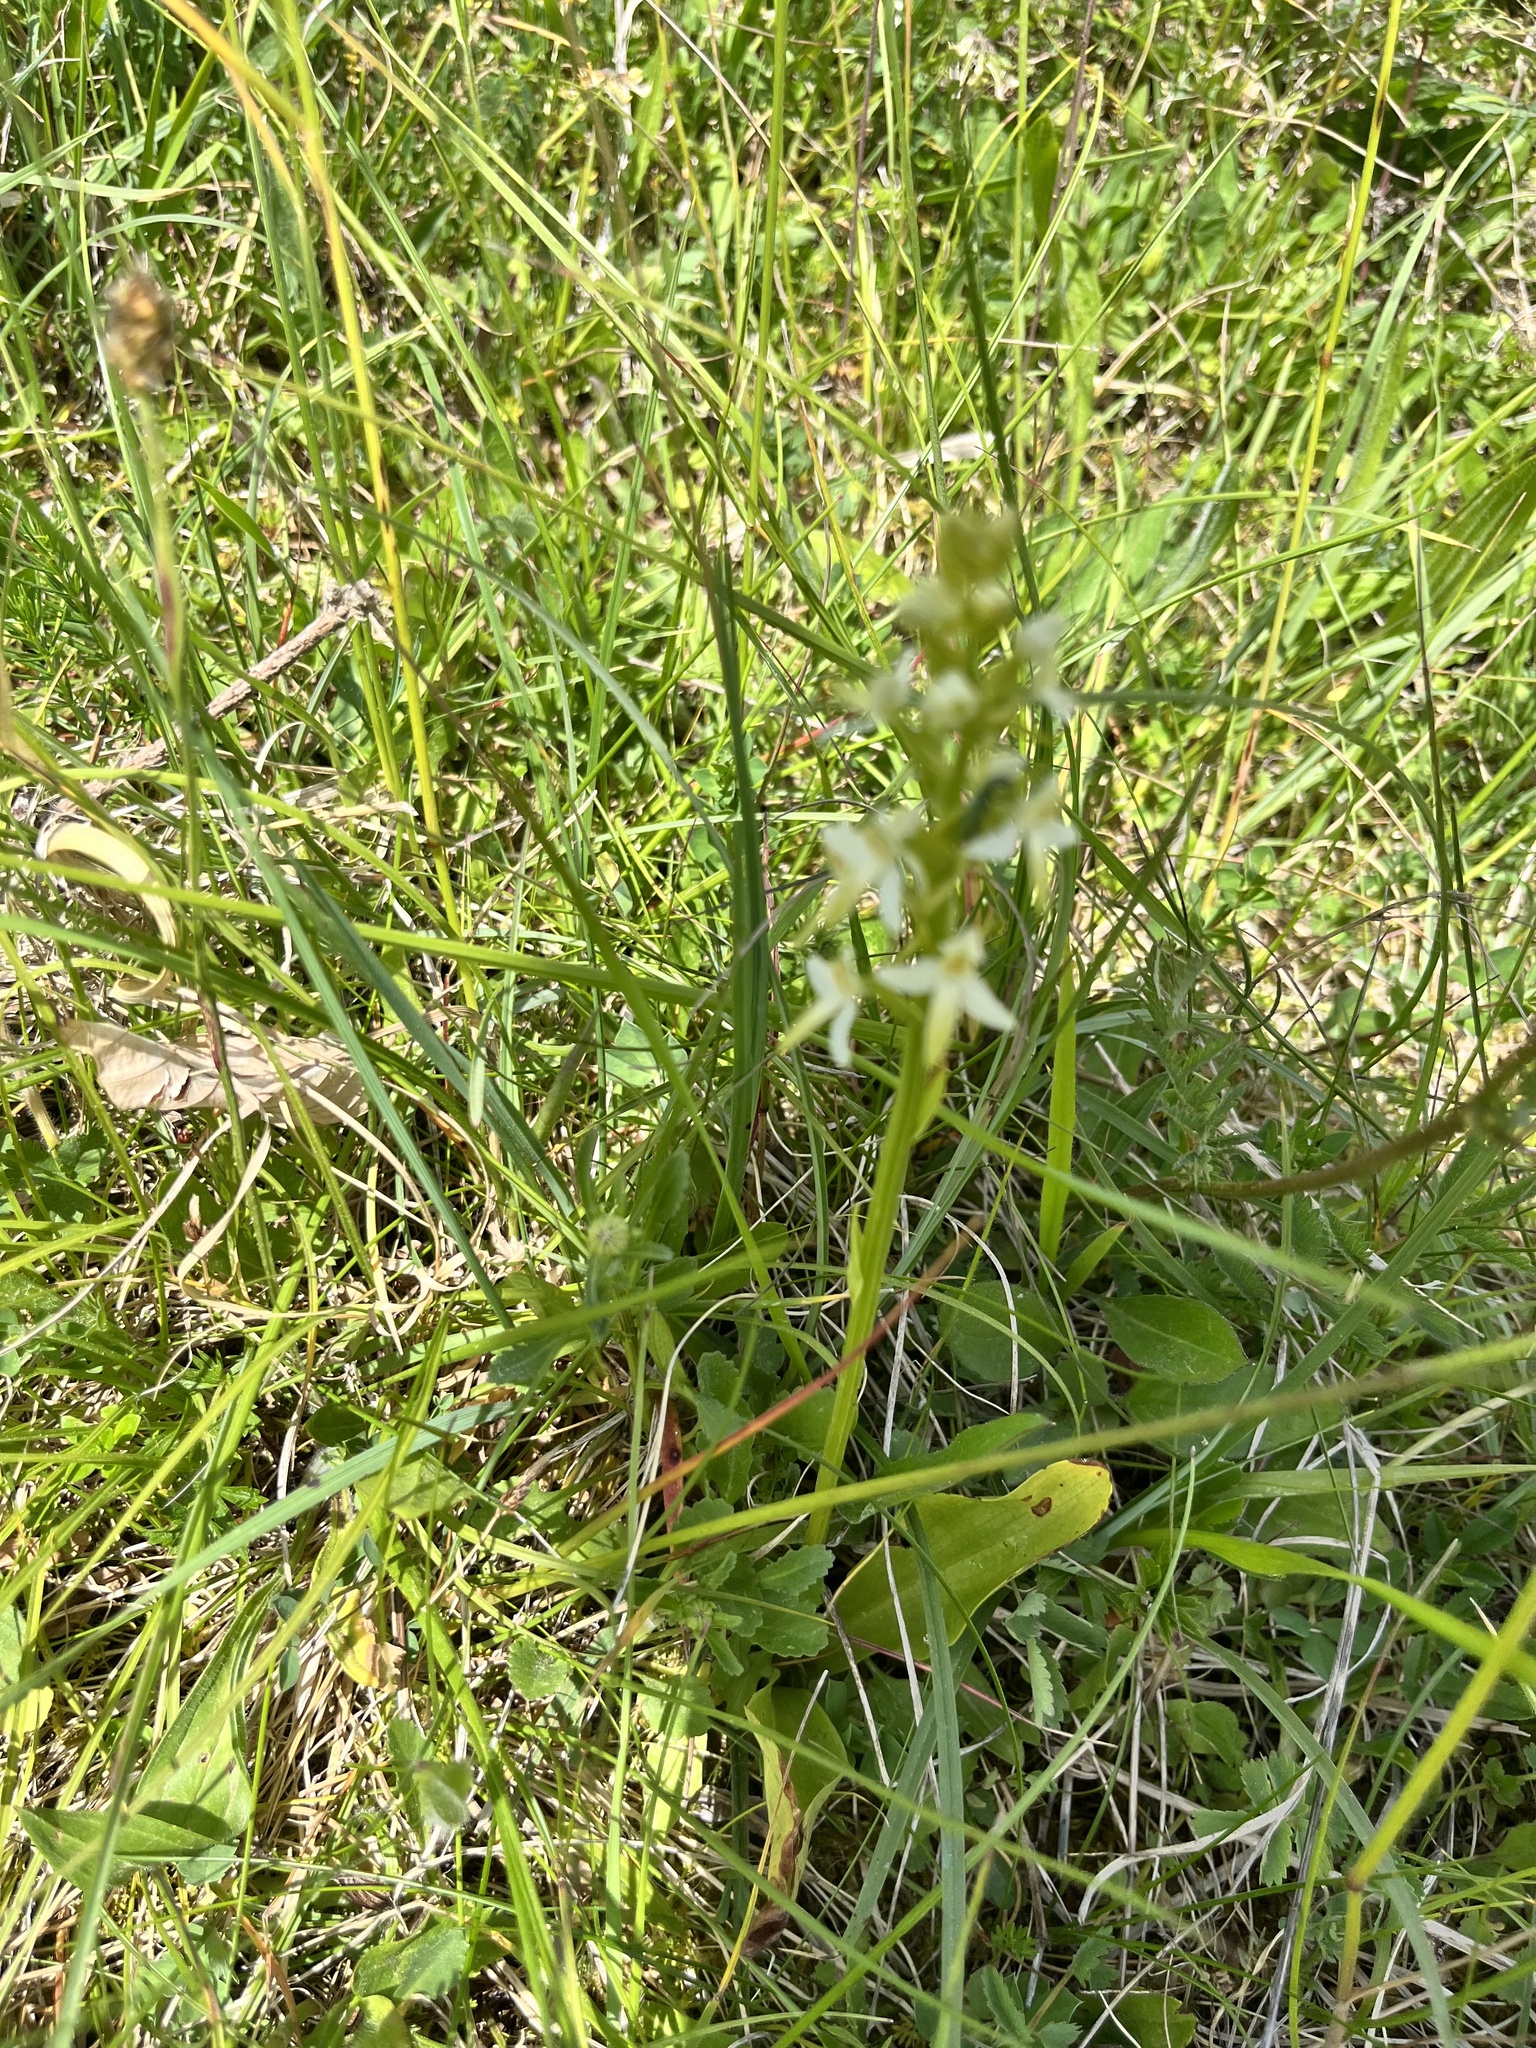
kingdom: Plantae
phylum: Tracheophyta
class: Liliopsida
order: Asparagales
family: Orchidaceae
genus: Platanthera
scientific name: Platanthera bifolia
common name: Lesser butterfly-orchid
